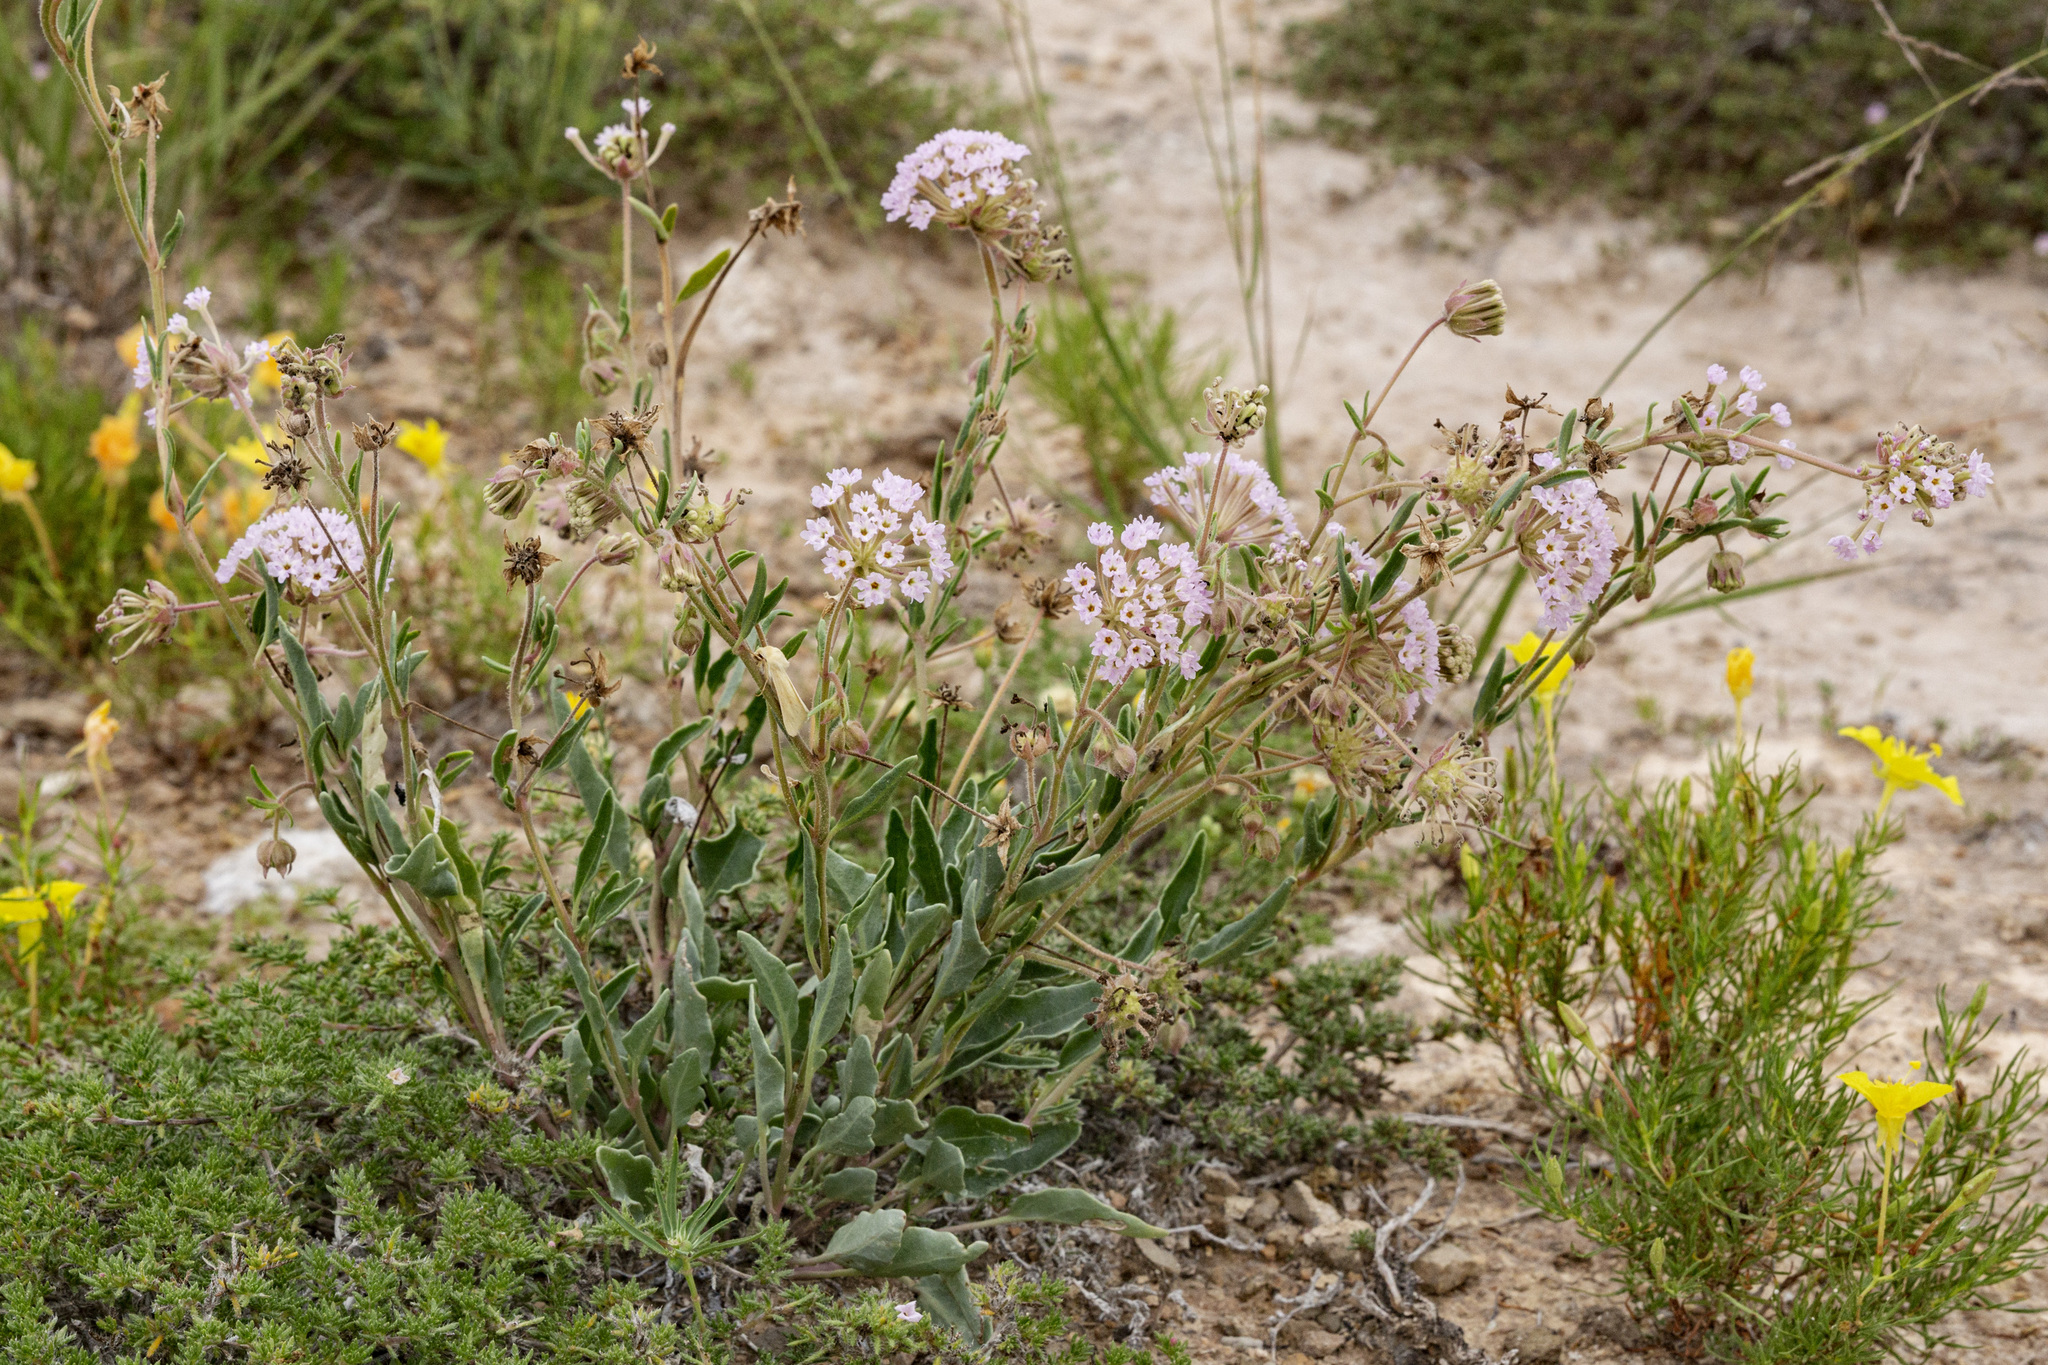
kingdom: Plantae
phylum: Tracheophyta
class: Magnoliopsida
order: Caryophyllales
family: Nyctaginaceae
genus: Abronia
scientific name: Abronia carletonii
